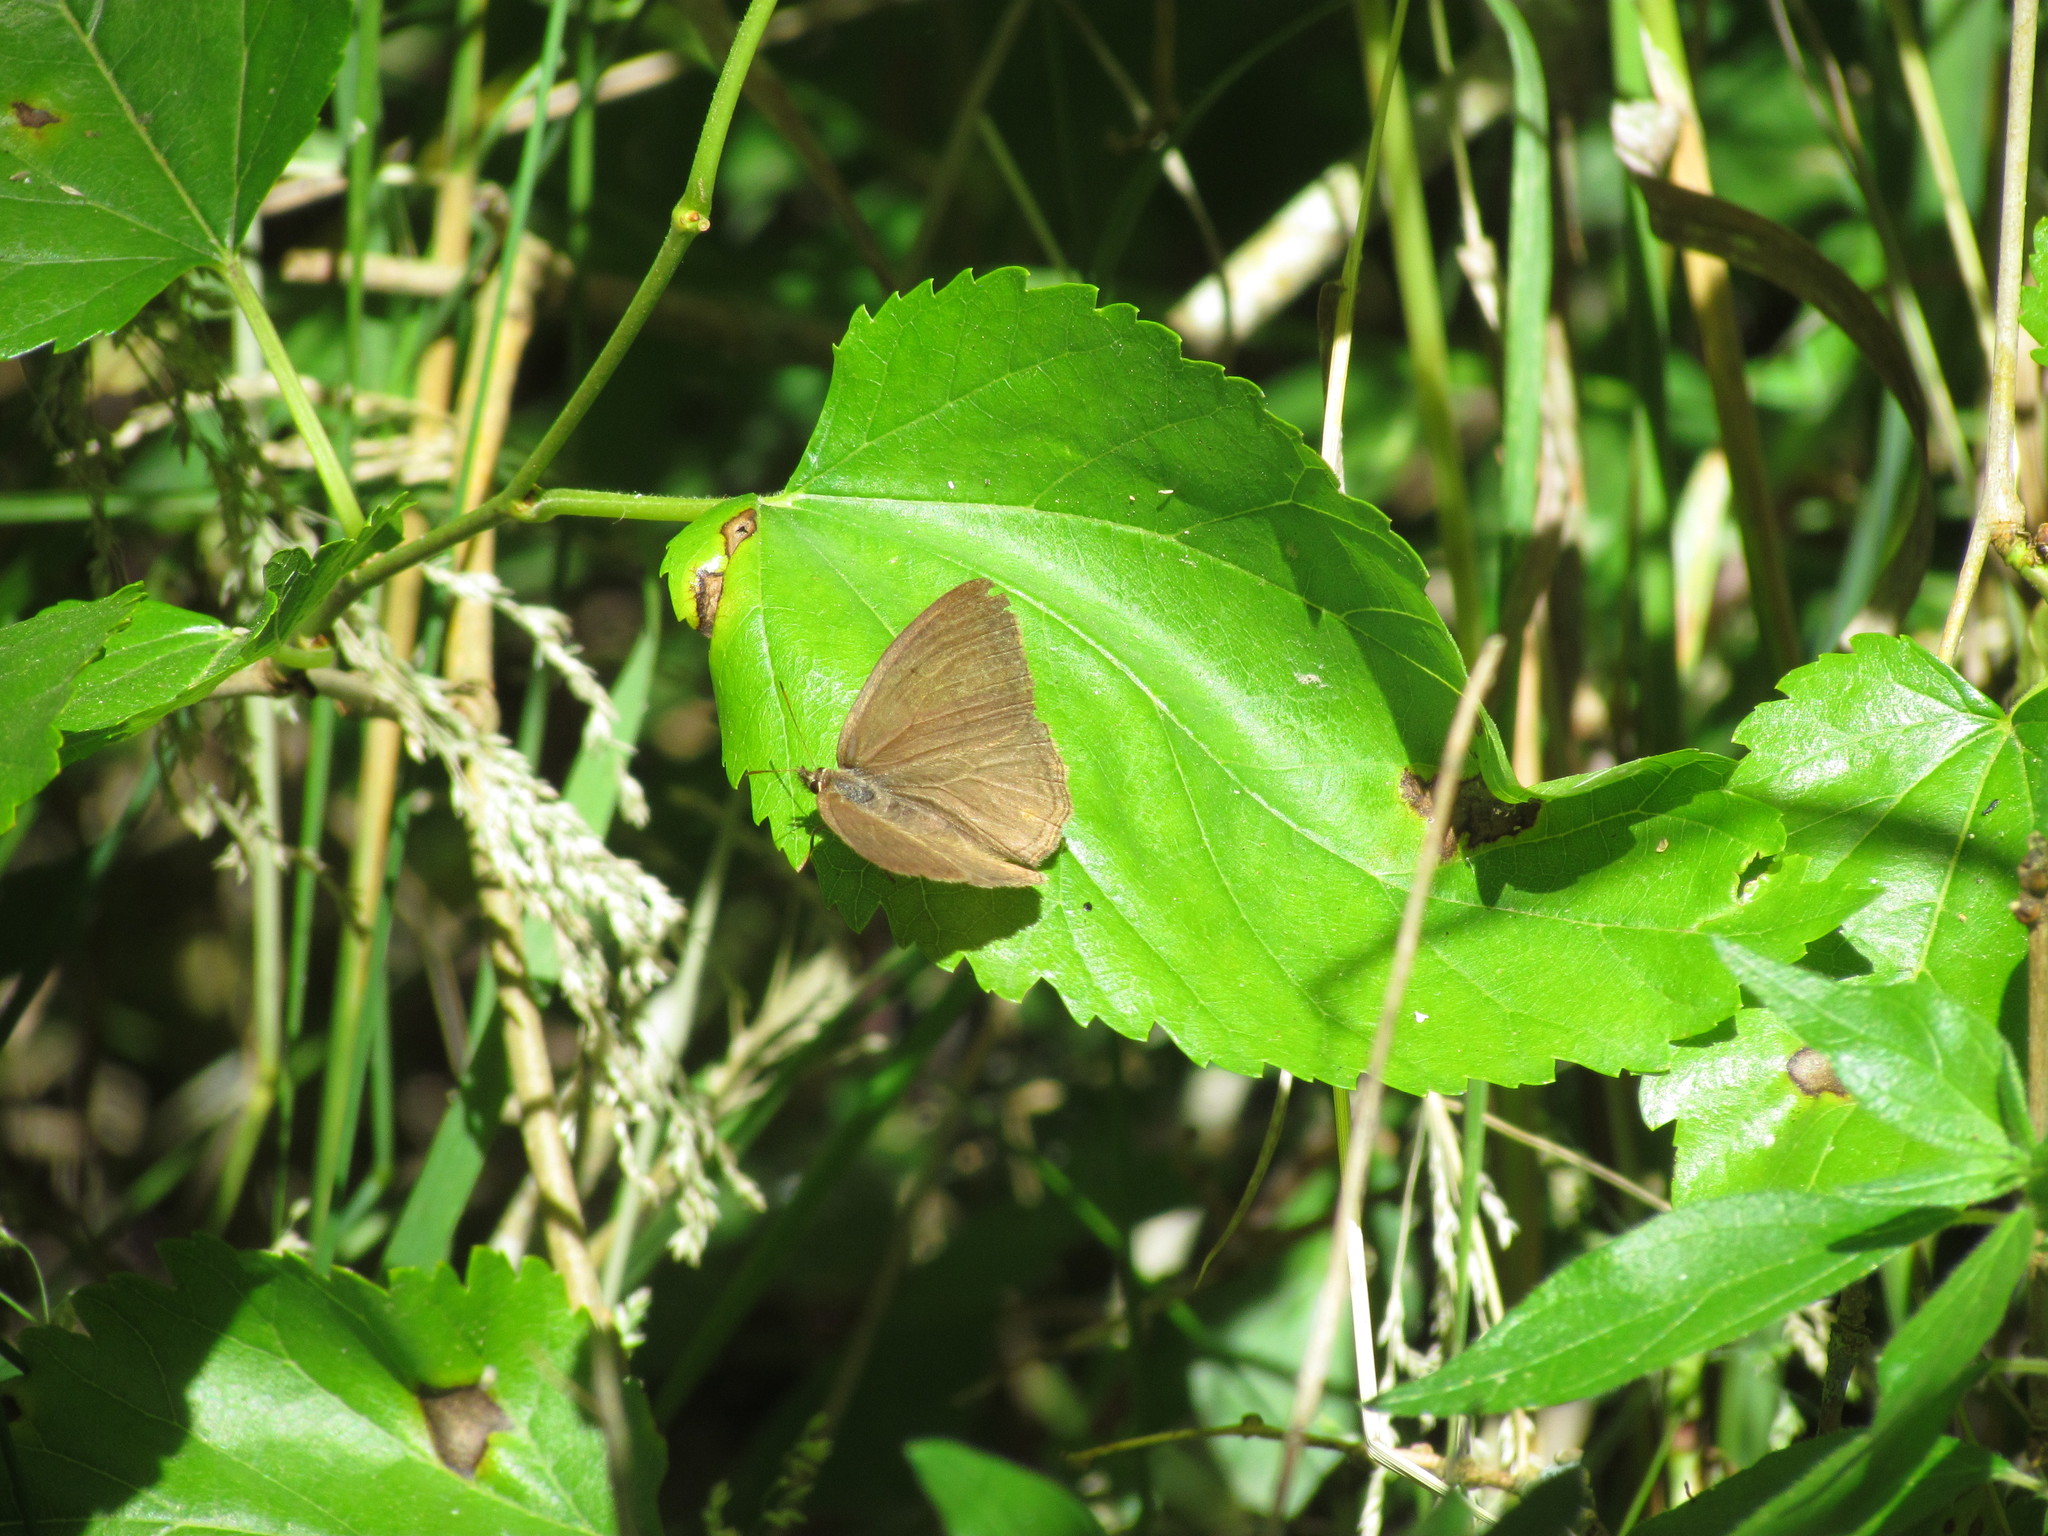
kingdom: Animalia
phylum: Arthropoda
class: Insecta
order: Lepidoptera
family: Nymphalidae
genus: Euptychia
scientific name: Euptychia
